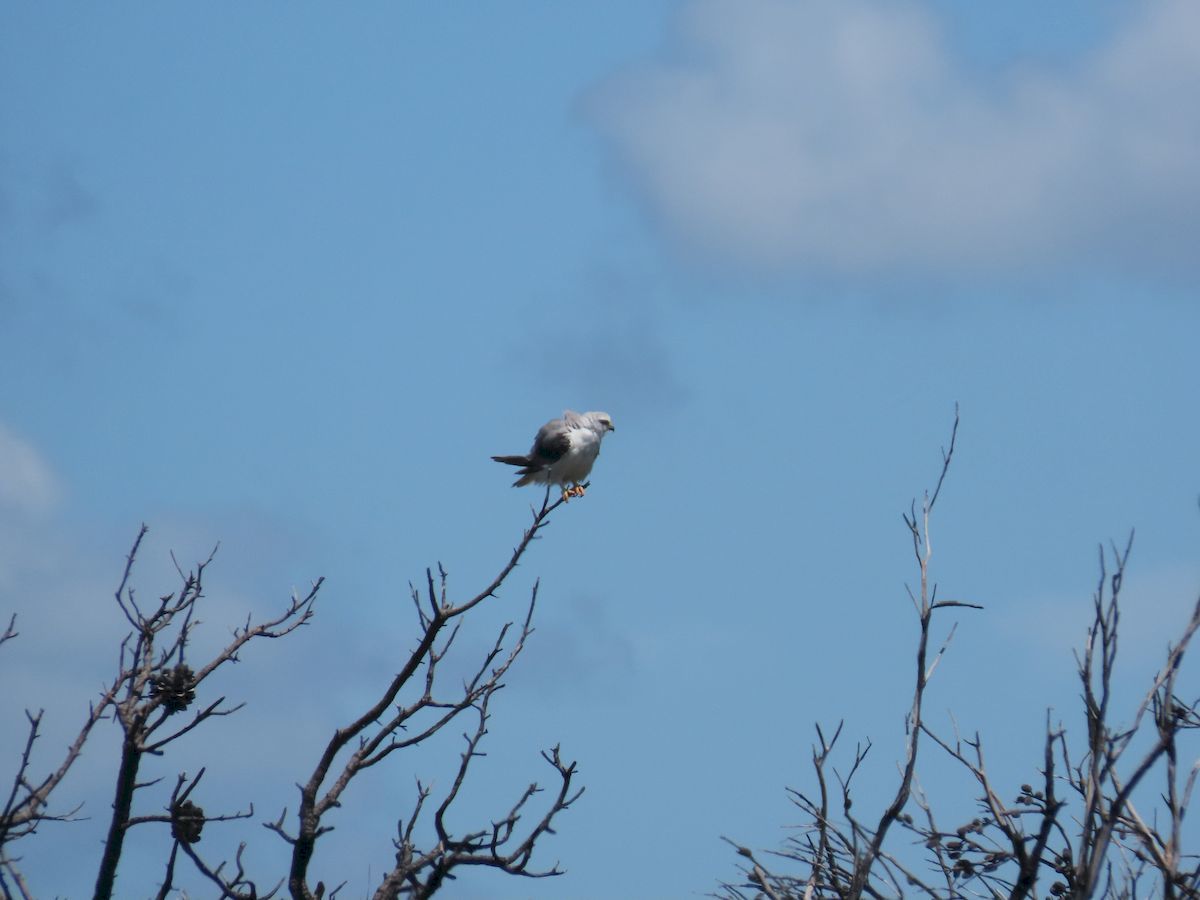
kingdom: Animalia
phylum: Chordata
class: Aves
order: Accipitriformes
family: Accipitridae
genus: Elanus
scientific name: Elanus axillaris
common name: Black-shouldered kite
